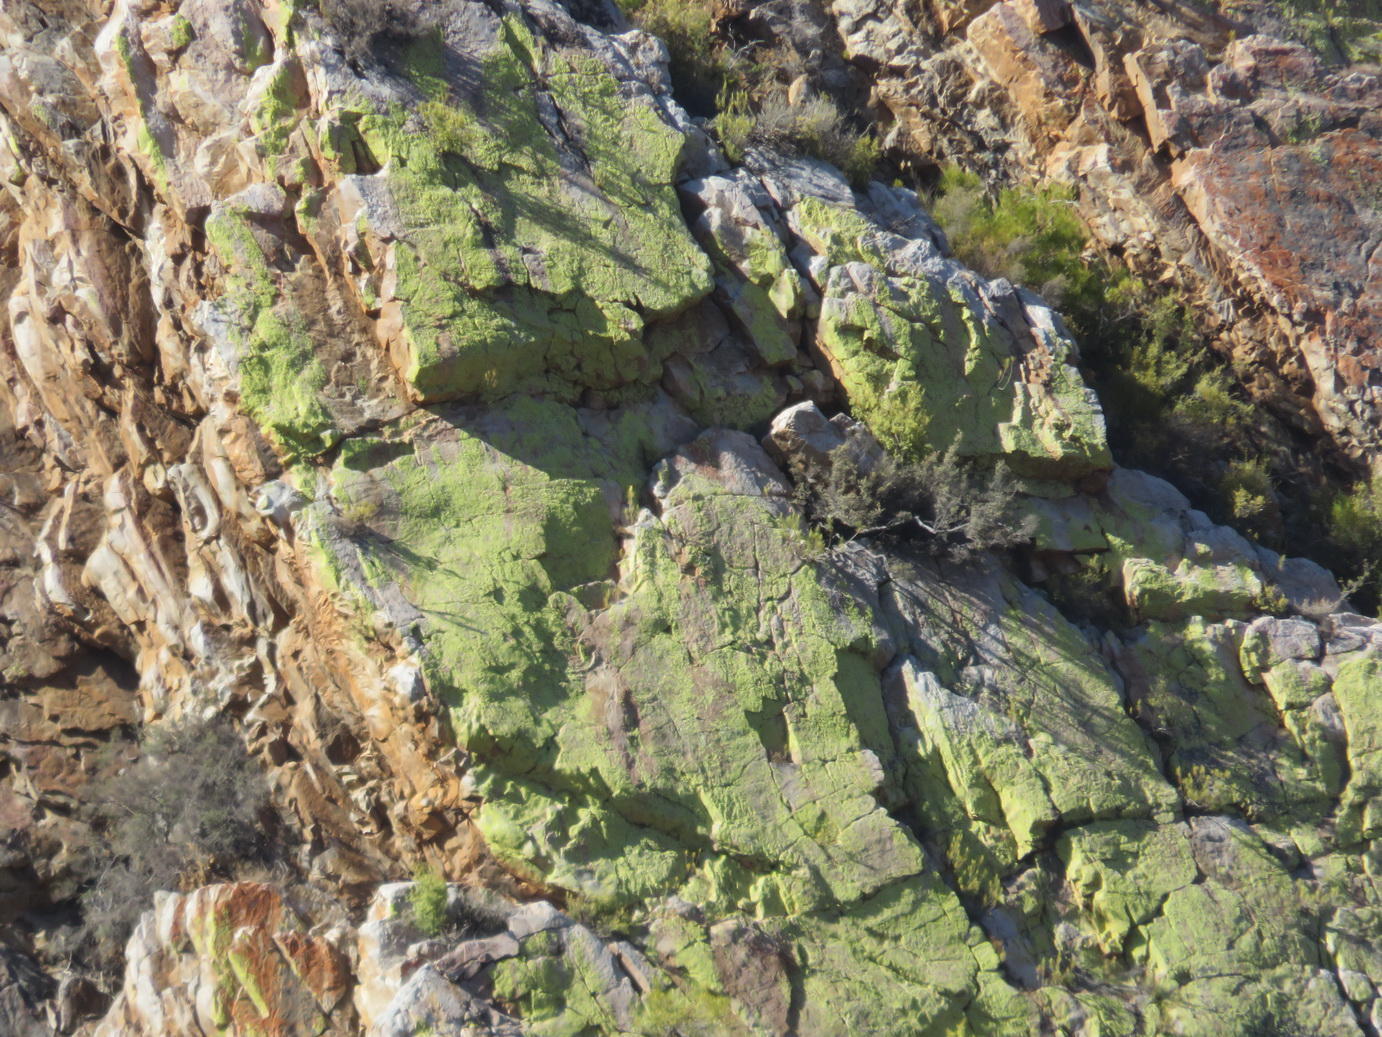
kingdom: Fungi
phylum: Ascomycota
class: Lecanoromycetes
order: Caliciales
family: Caliciaceae
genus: Dermatiscum
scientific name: Dermatiscum thunbergii
